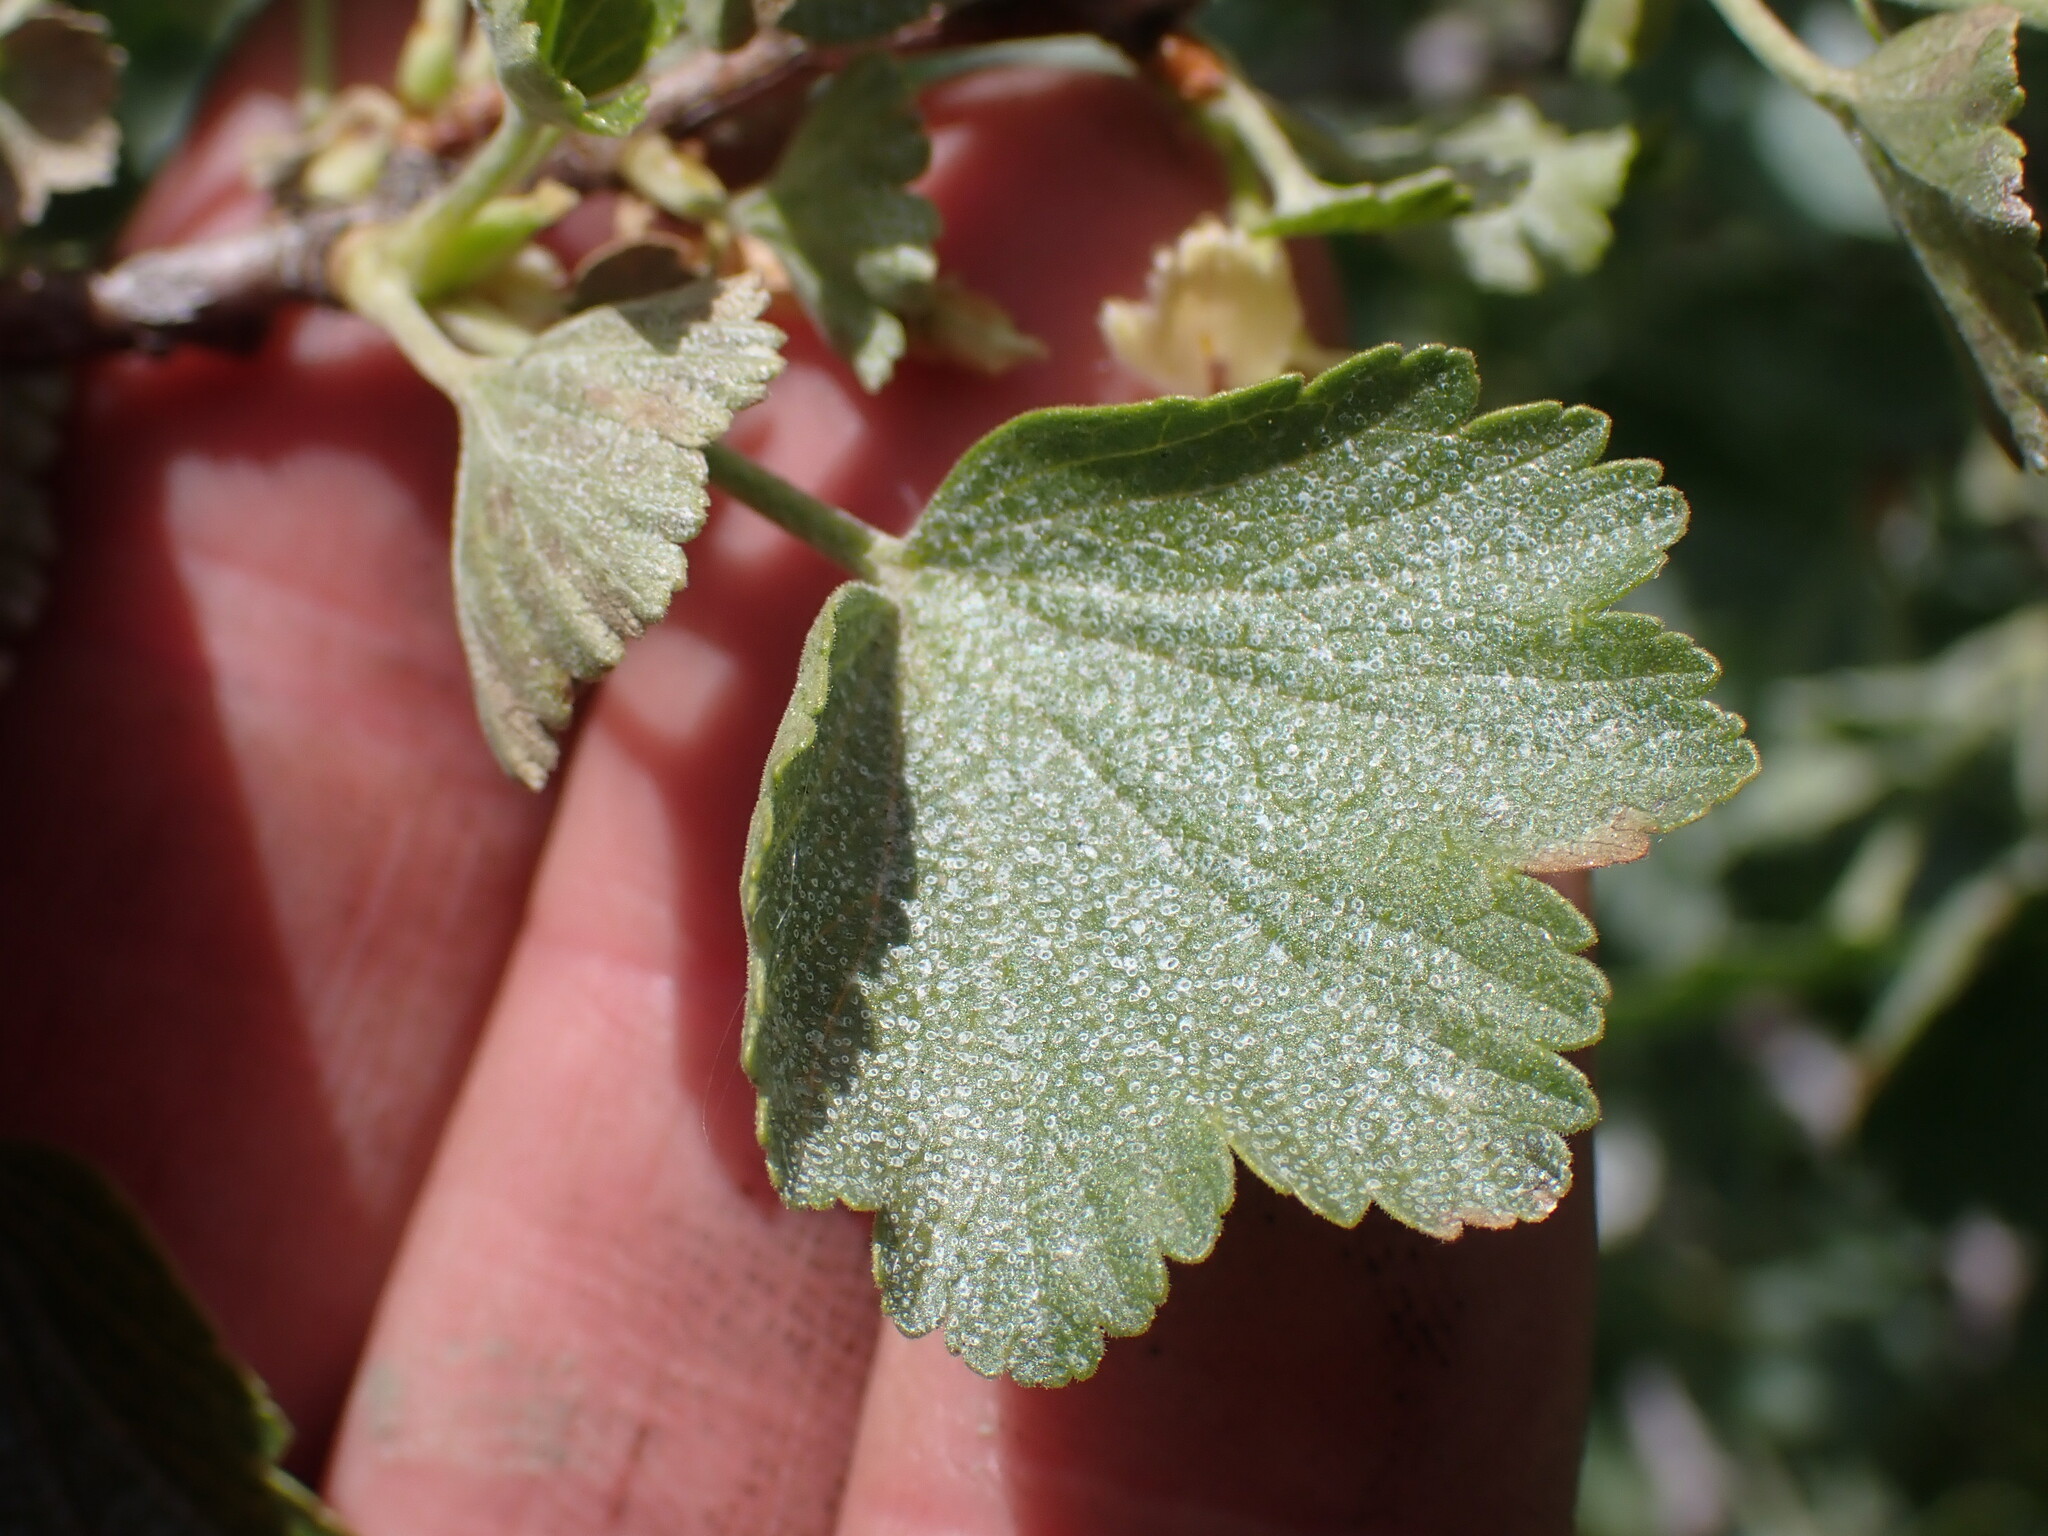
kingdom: Plantae
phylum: Tracheophyta
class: Magnoliopsida
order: Saxifragales
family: Grossulariaceae
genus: Ribes
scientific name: Ribes cereum
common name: Wax currant
